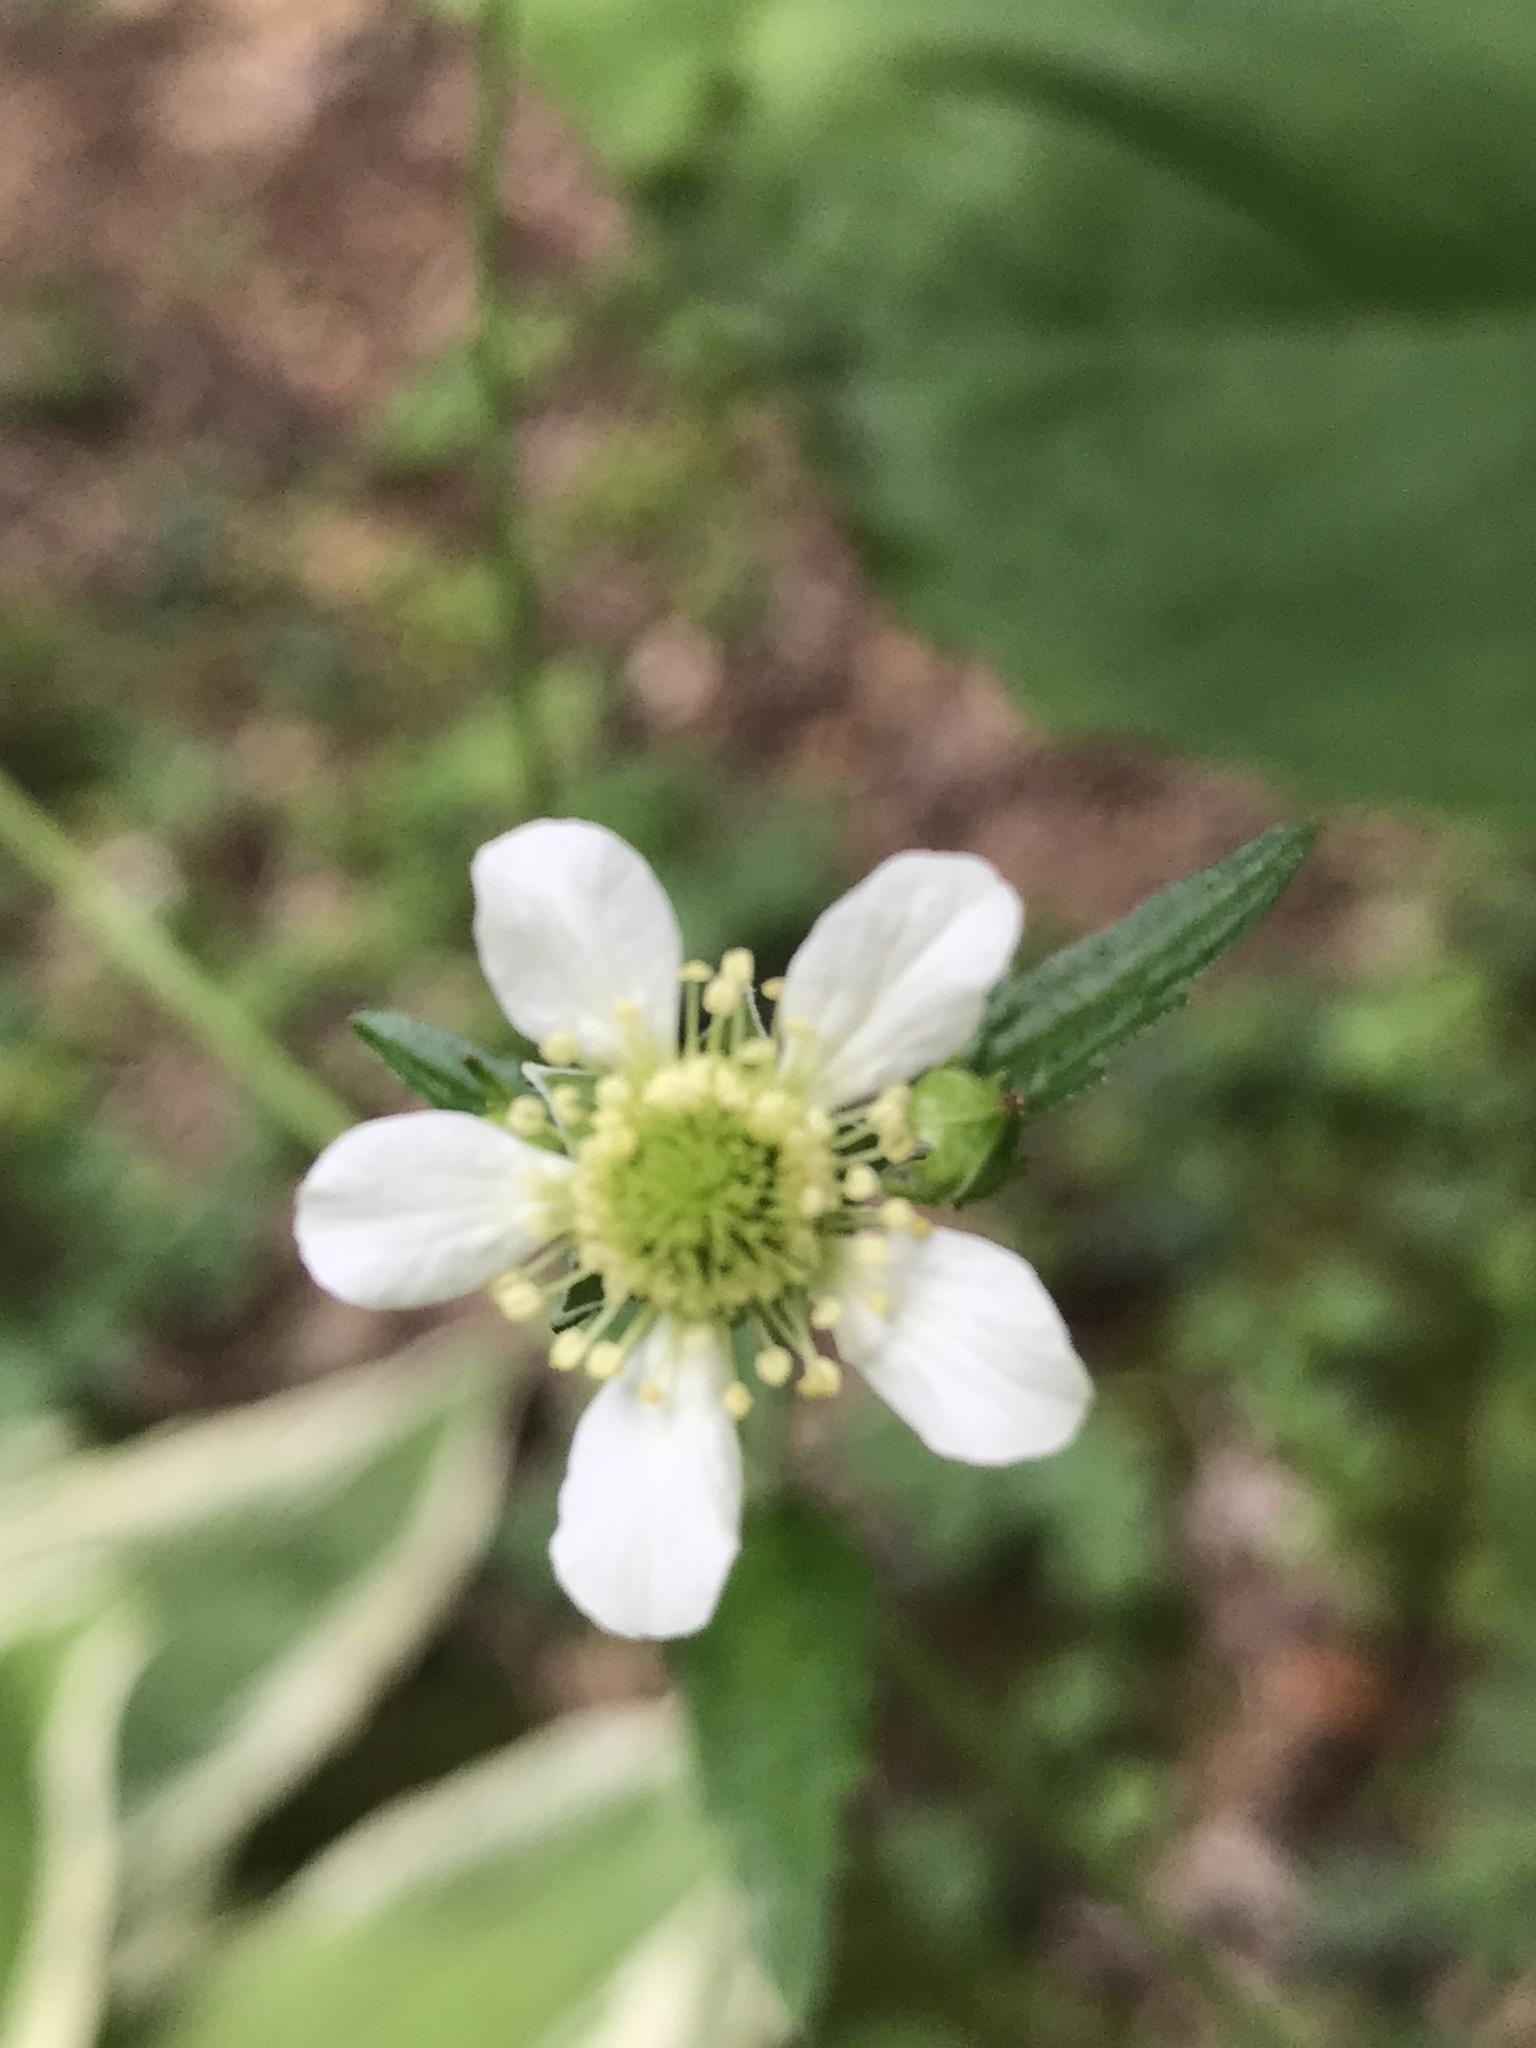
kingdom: Plantae
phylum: Tracheophyta
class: Magnoliopsida
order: Rosales
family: Rosaceae
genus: Geum
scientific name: Geum canadense
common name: White avens
